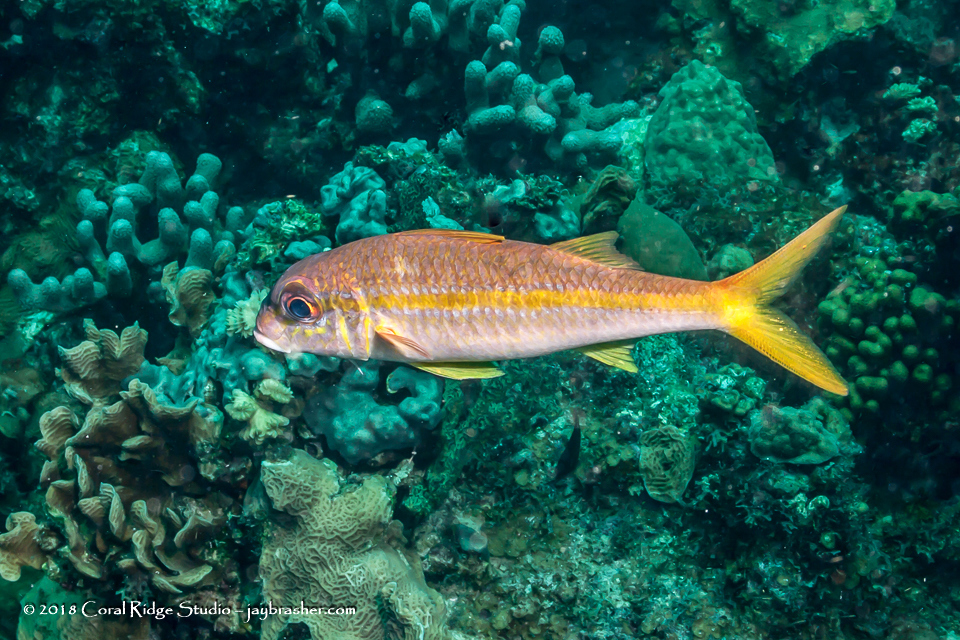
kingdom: Animalia
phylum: Chordata
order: Perciformes
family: Mullidae
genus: Mulloidichthys
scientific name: Mulloidichthys martinicus
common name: Yellow goatfish
